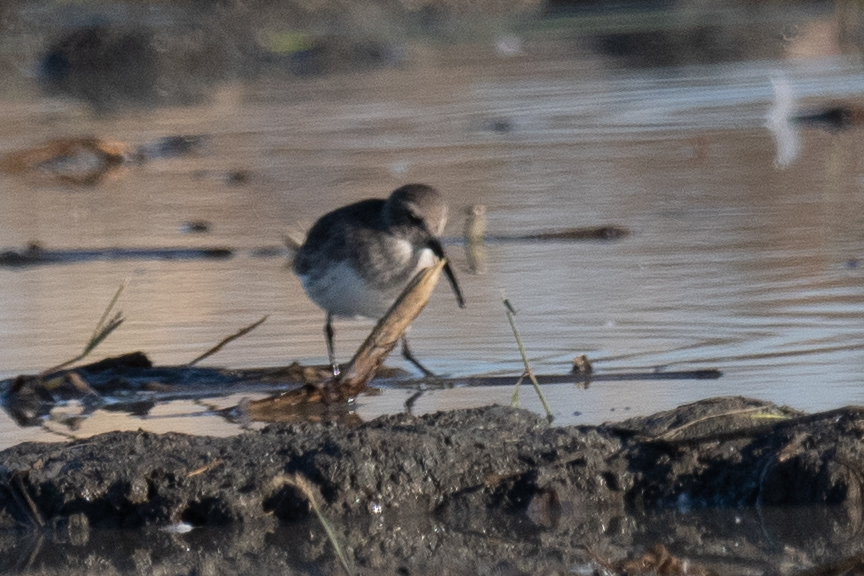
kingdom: Animalia
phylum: Chordata
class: Aves
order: Charadriiformes
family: Scolopacidae
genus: Calidris
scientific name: Calidris alpina
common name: Dunlin
